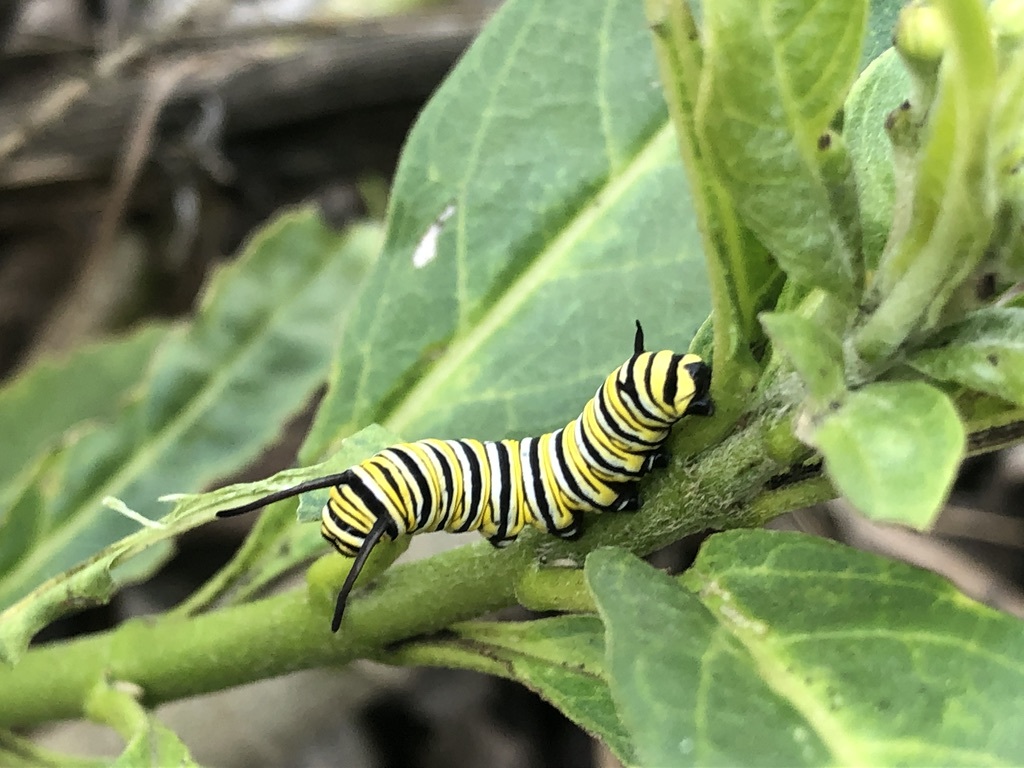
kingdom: Animalia
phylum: Arthropoda
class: Insecta
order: Lepidoptera
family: Nymphalidae
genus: Danaus
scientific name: Danaus plexippus
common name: Monarch
